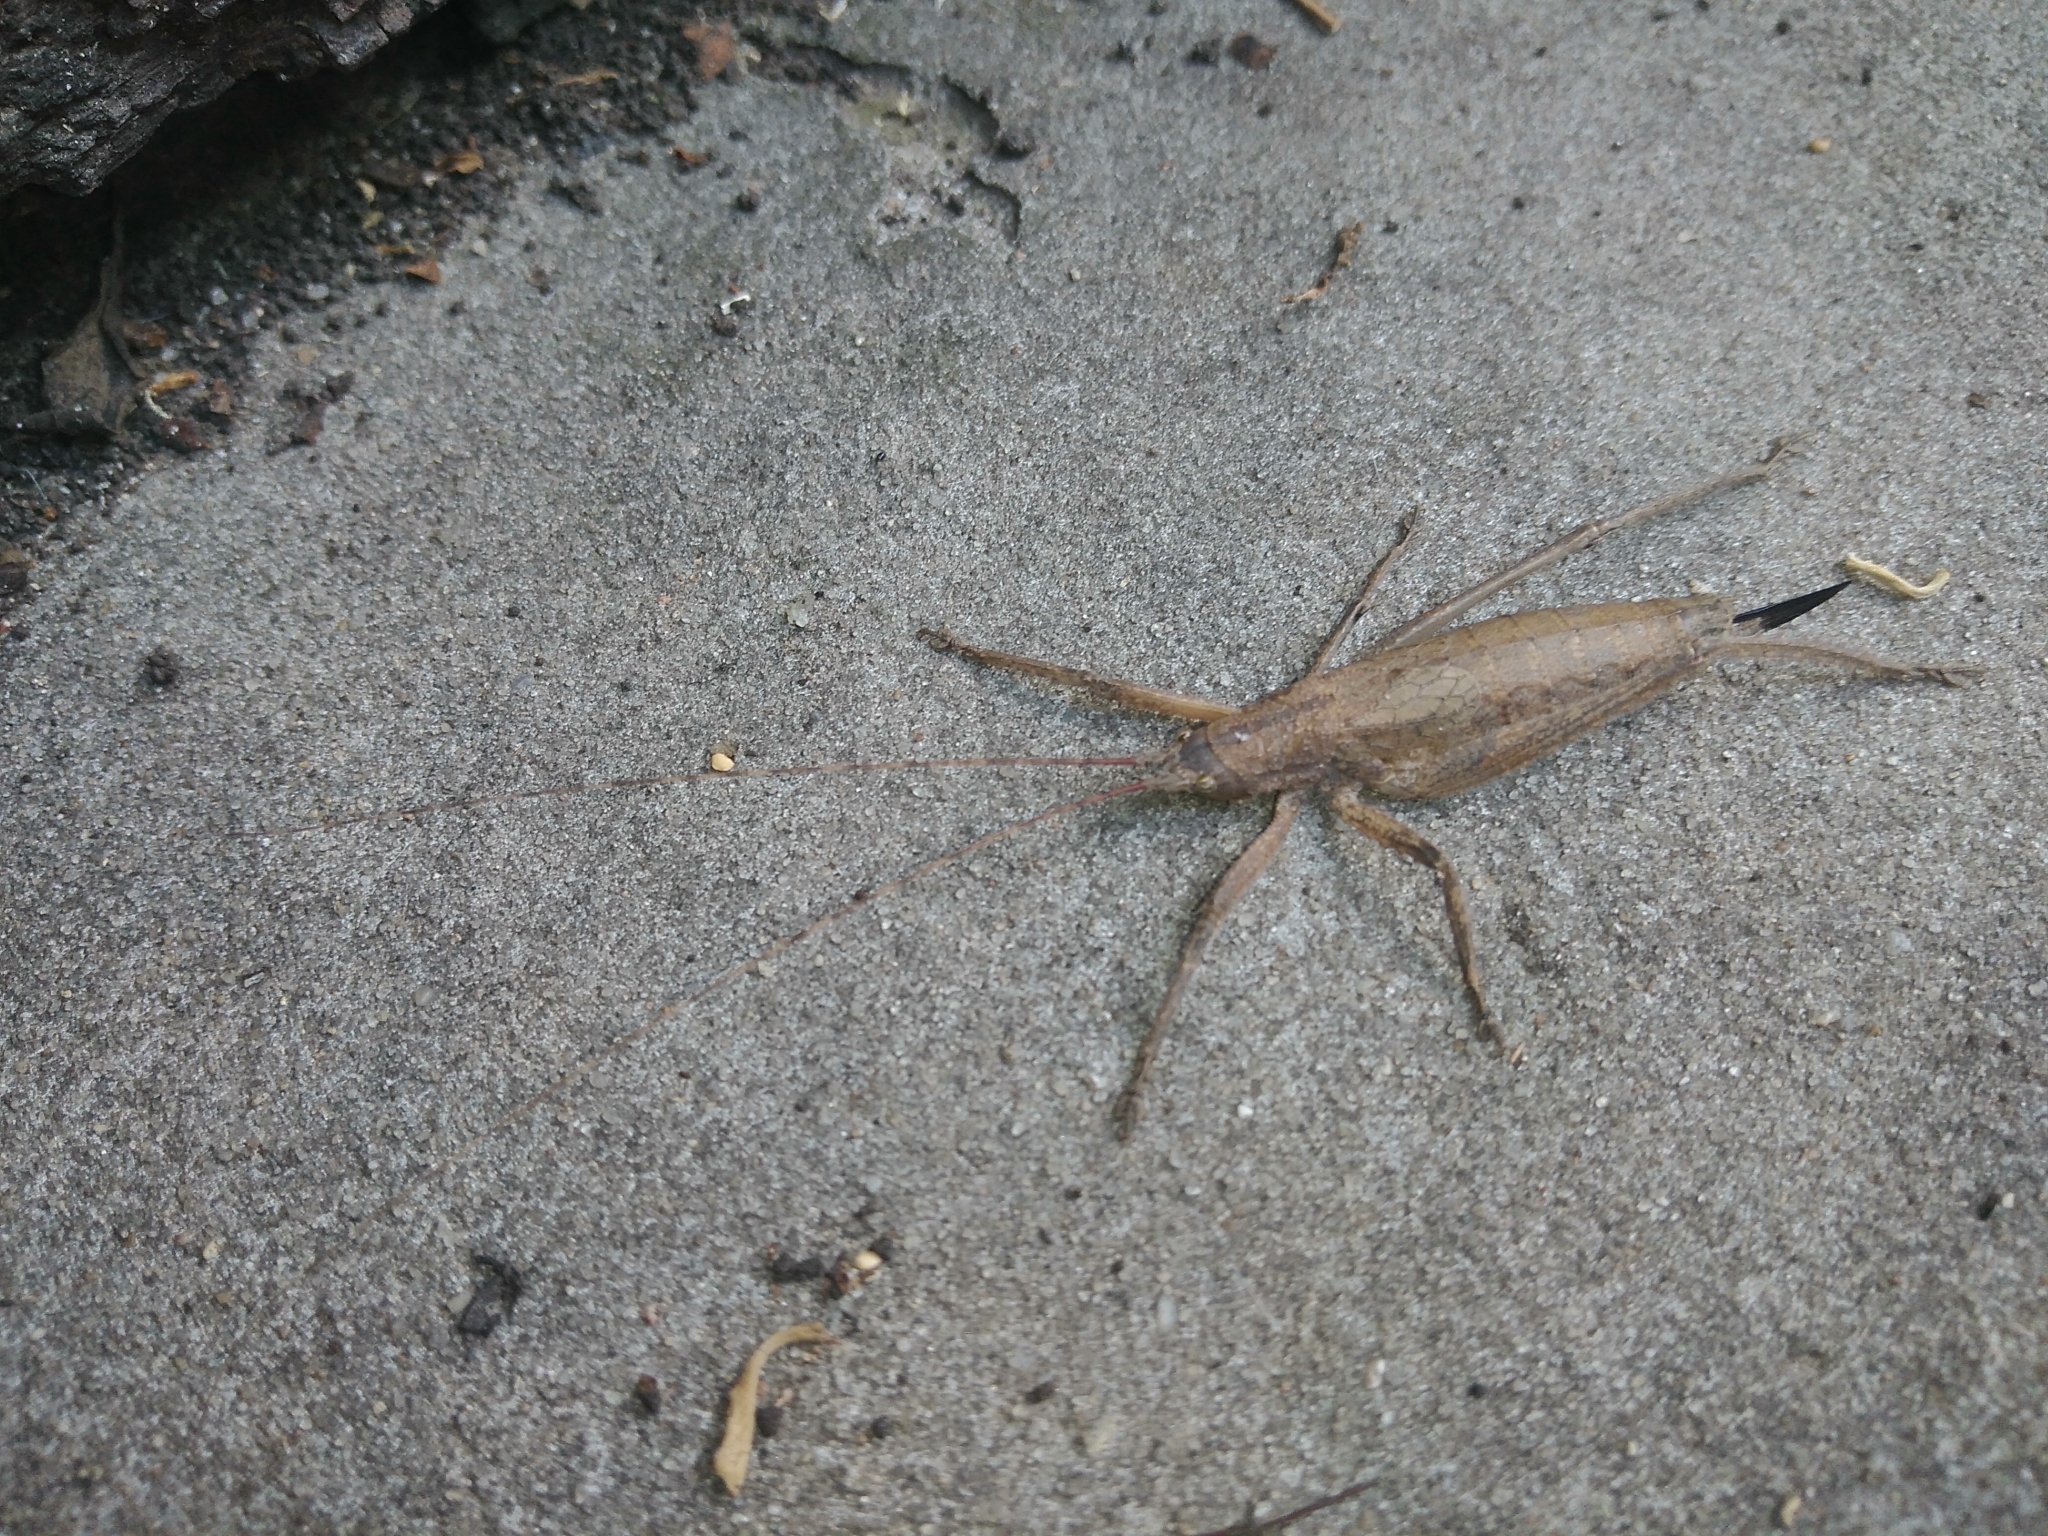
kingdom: Animalia
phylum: Arthropoda
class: Insecta
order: Orthoptera
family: Tettigoniidae
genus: Dasyscelus
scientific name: Dasyscelus normalis
